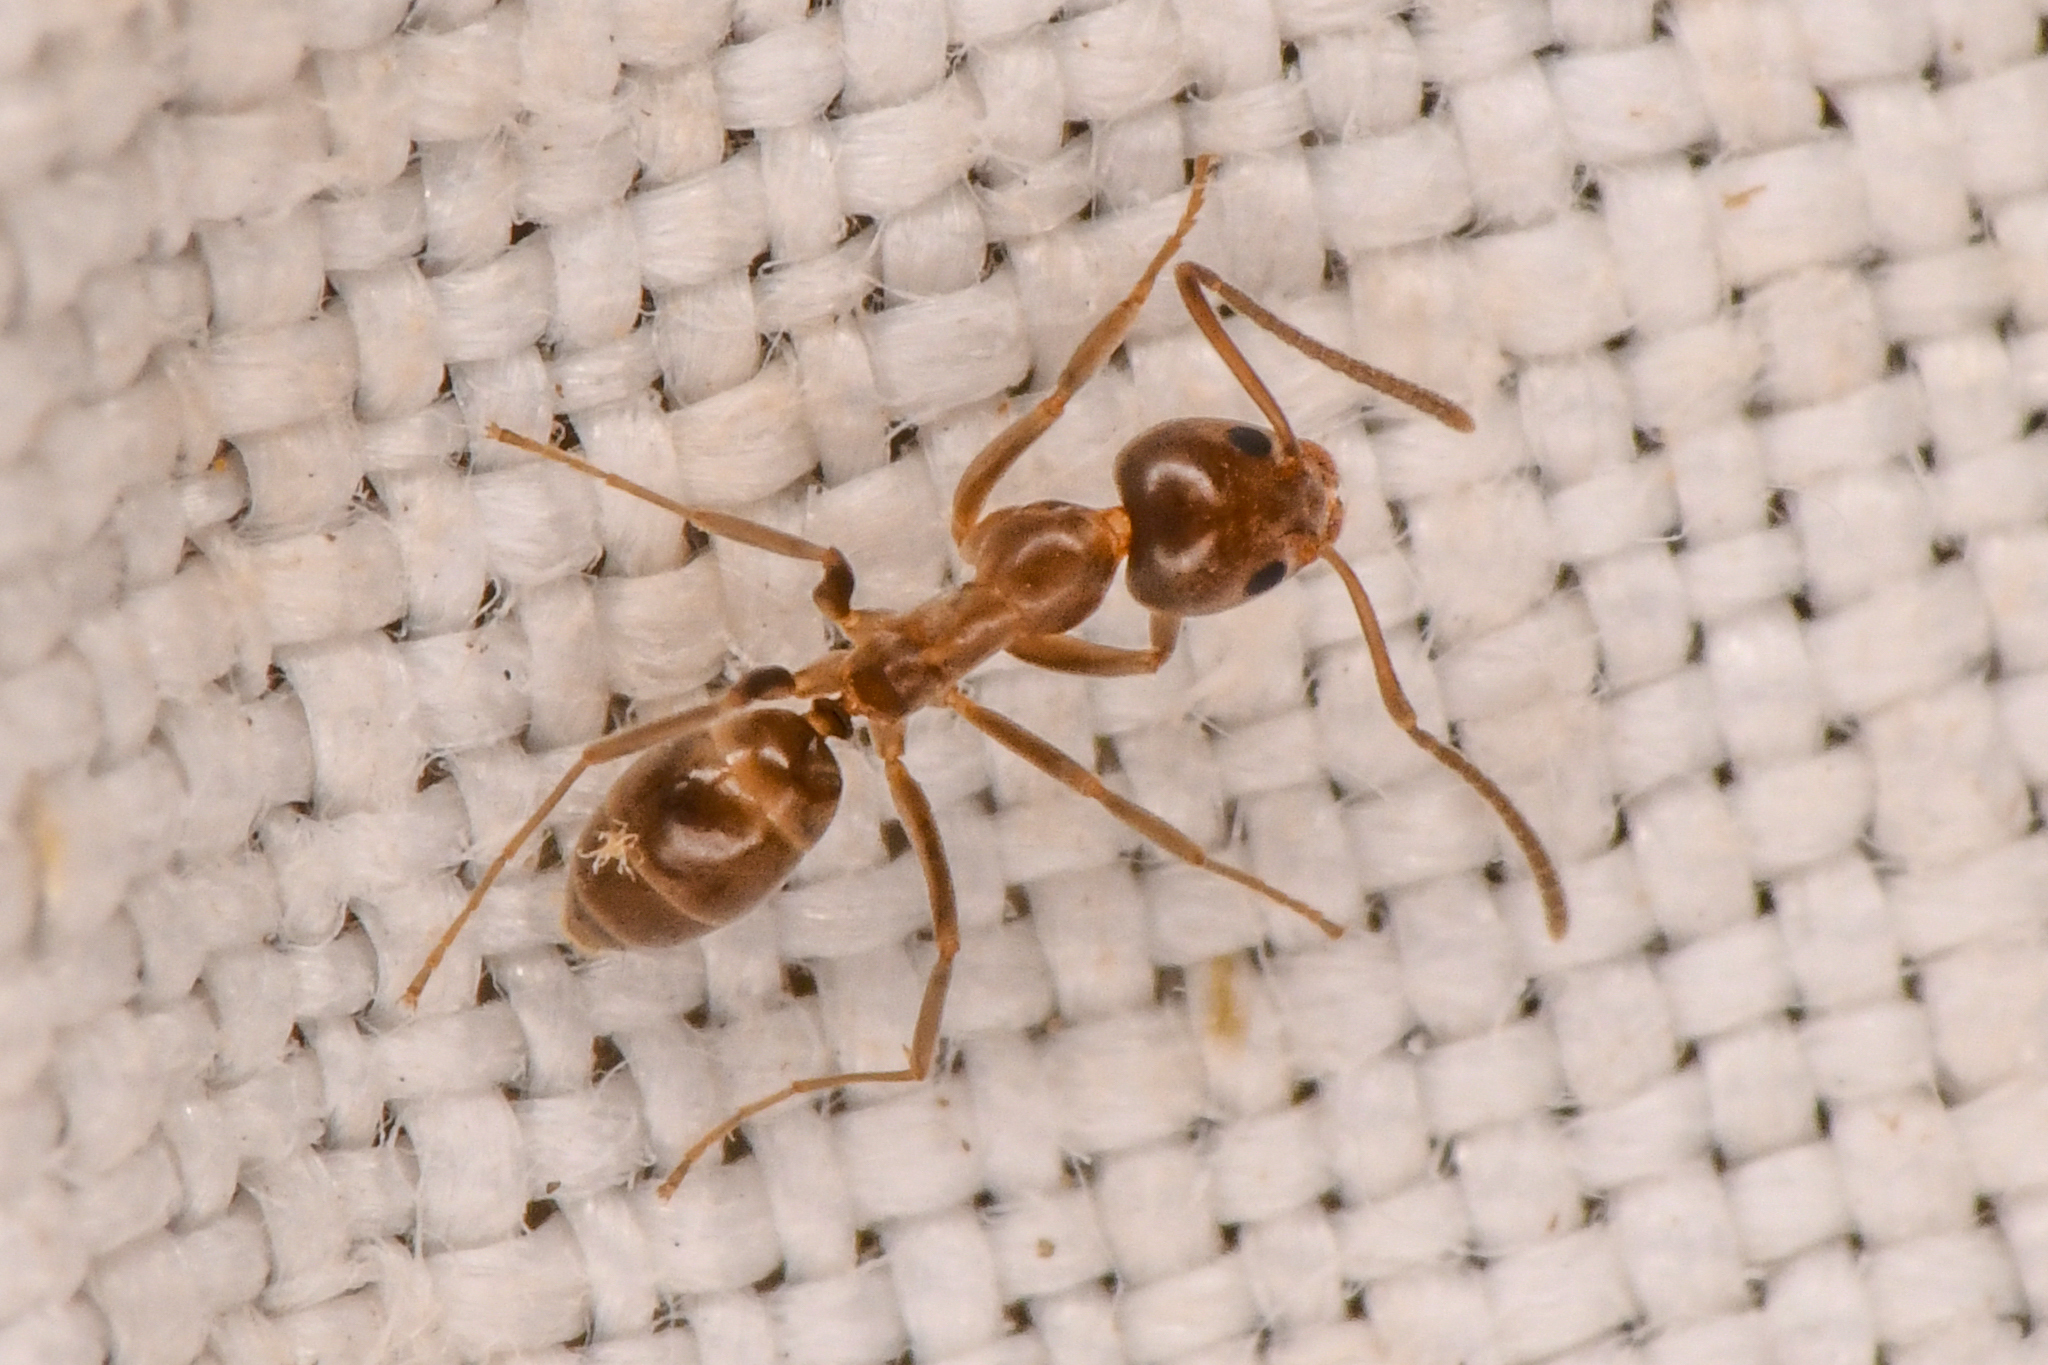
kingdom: Animalia
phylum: Arthropoda
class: Insecta
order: Hymenoptera
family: Formicidae
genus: Linepithema
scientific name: Linepithema humile
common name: Argentine ant
